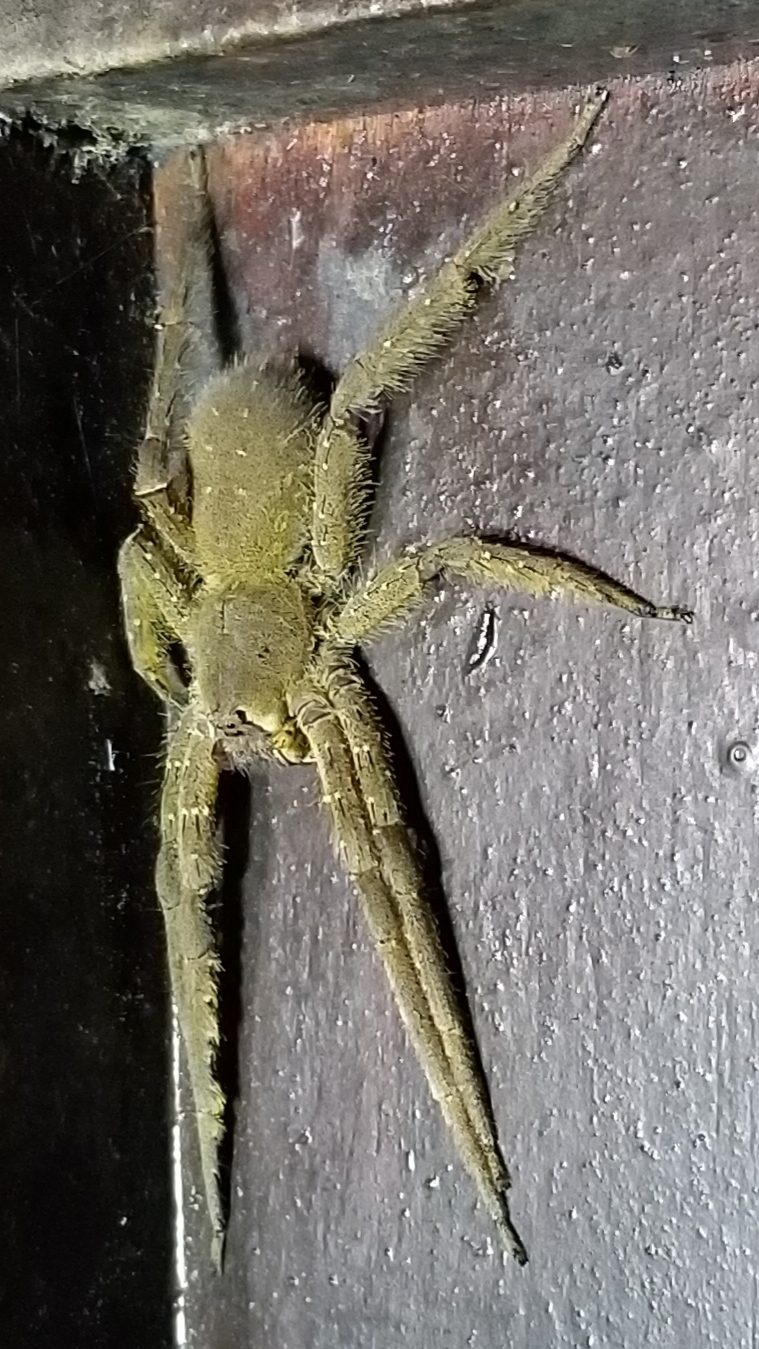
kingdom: Animalia
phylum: Arthropoda
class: Arachnida
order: Araneae
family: Ctenidae
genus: Phoneutria
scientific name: Phoneutria boliviensis
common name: Wandering spiders
